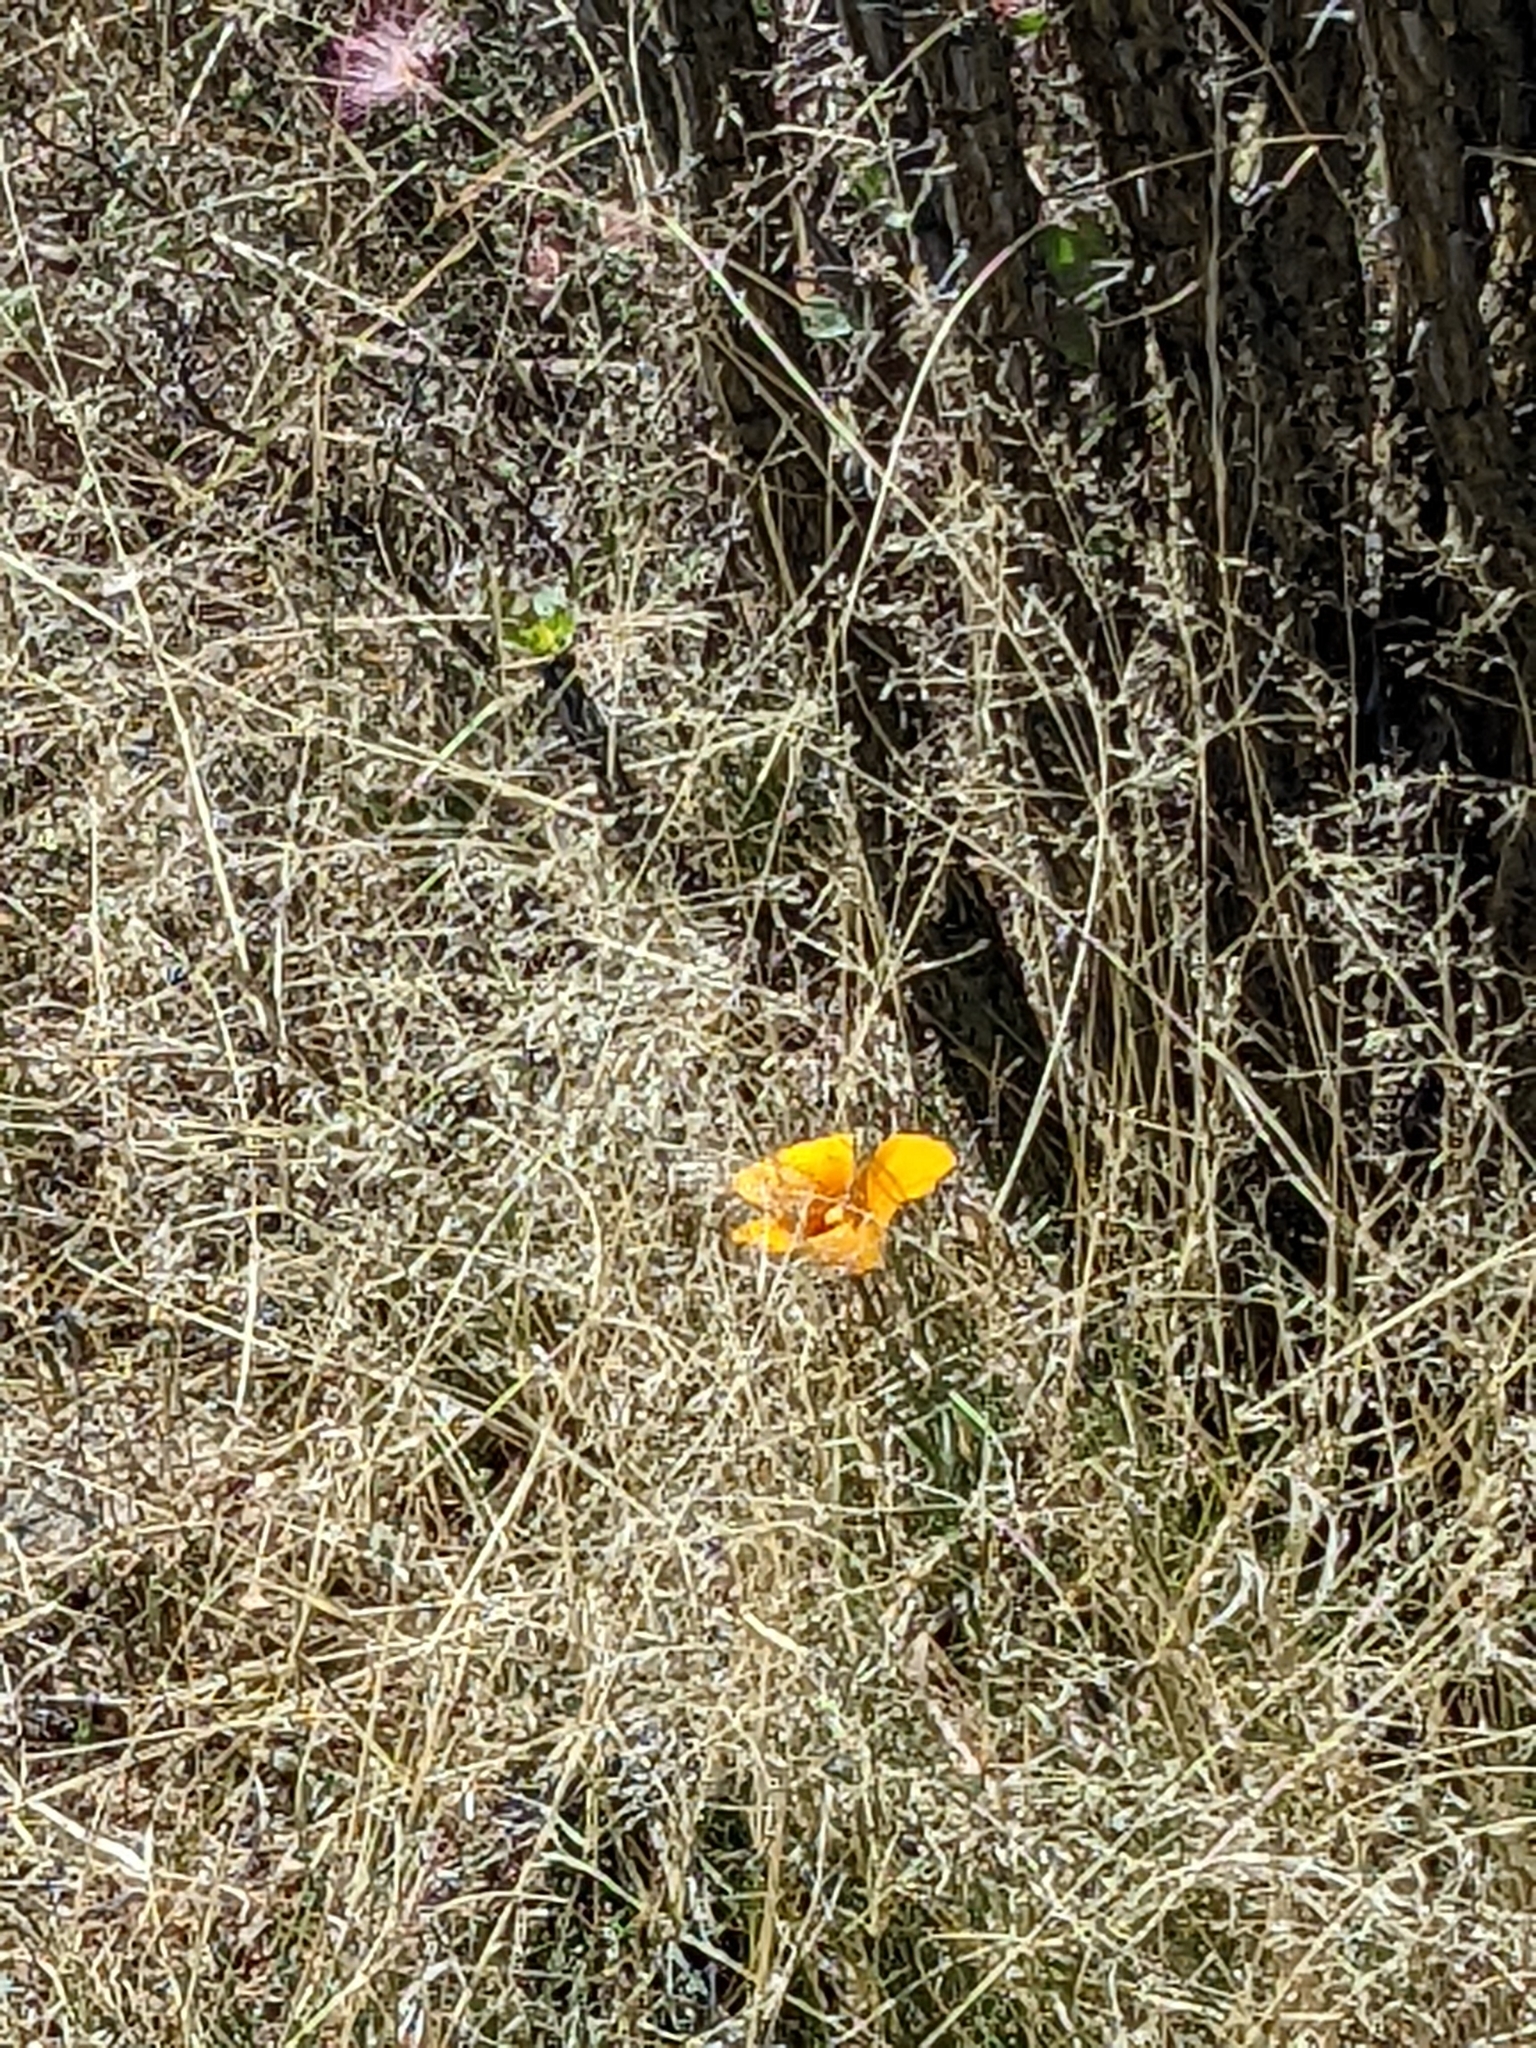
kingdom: Plantae
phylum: Tracheophyta
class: Liliopsida
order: Liliales
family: Liliaceae
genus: Calochortus
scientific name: Calochortus kennedyi
